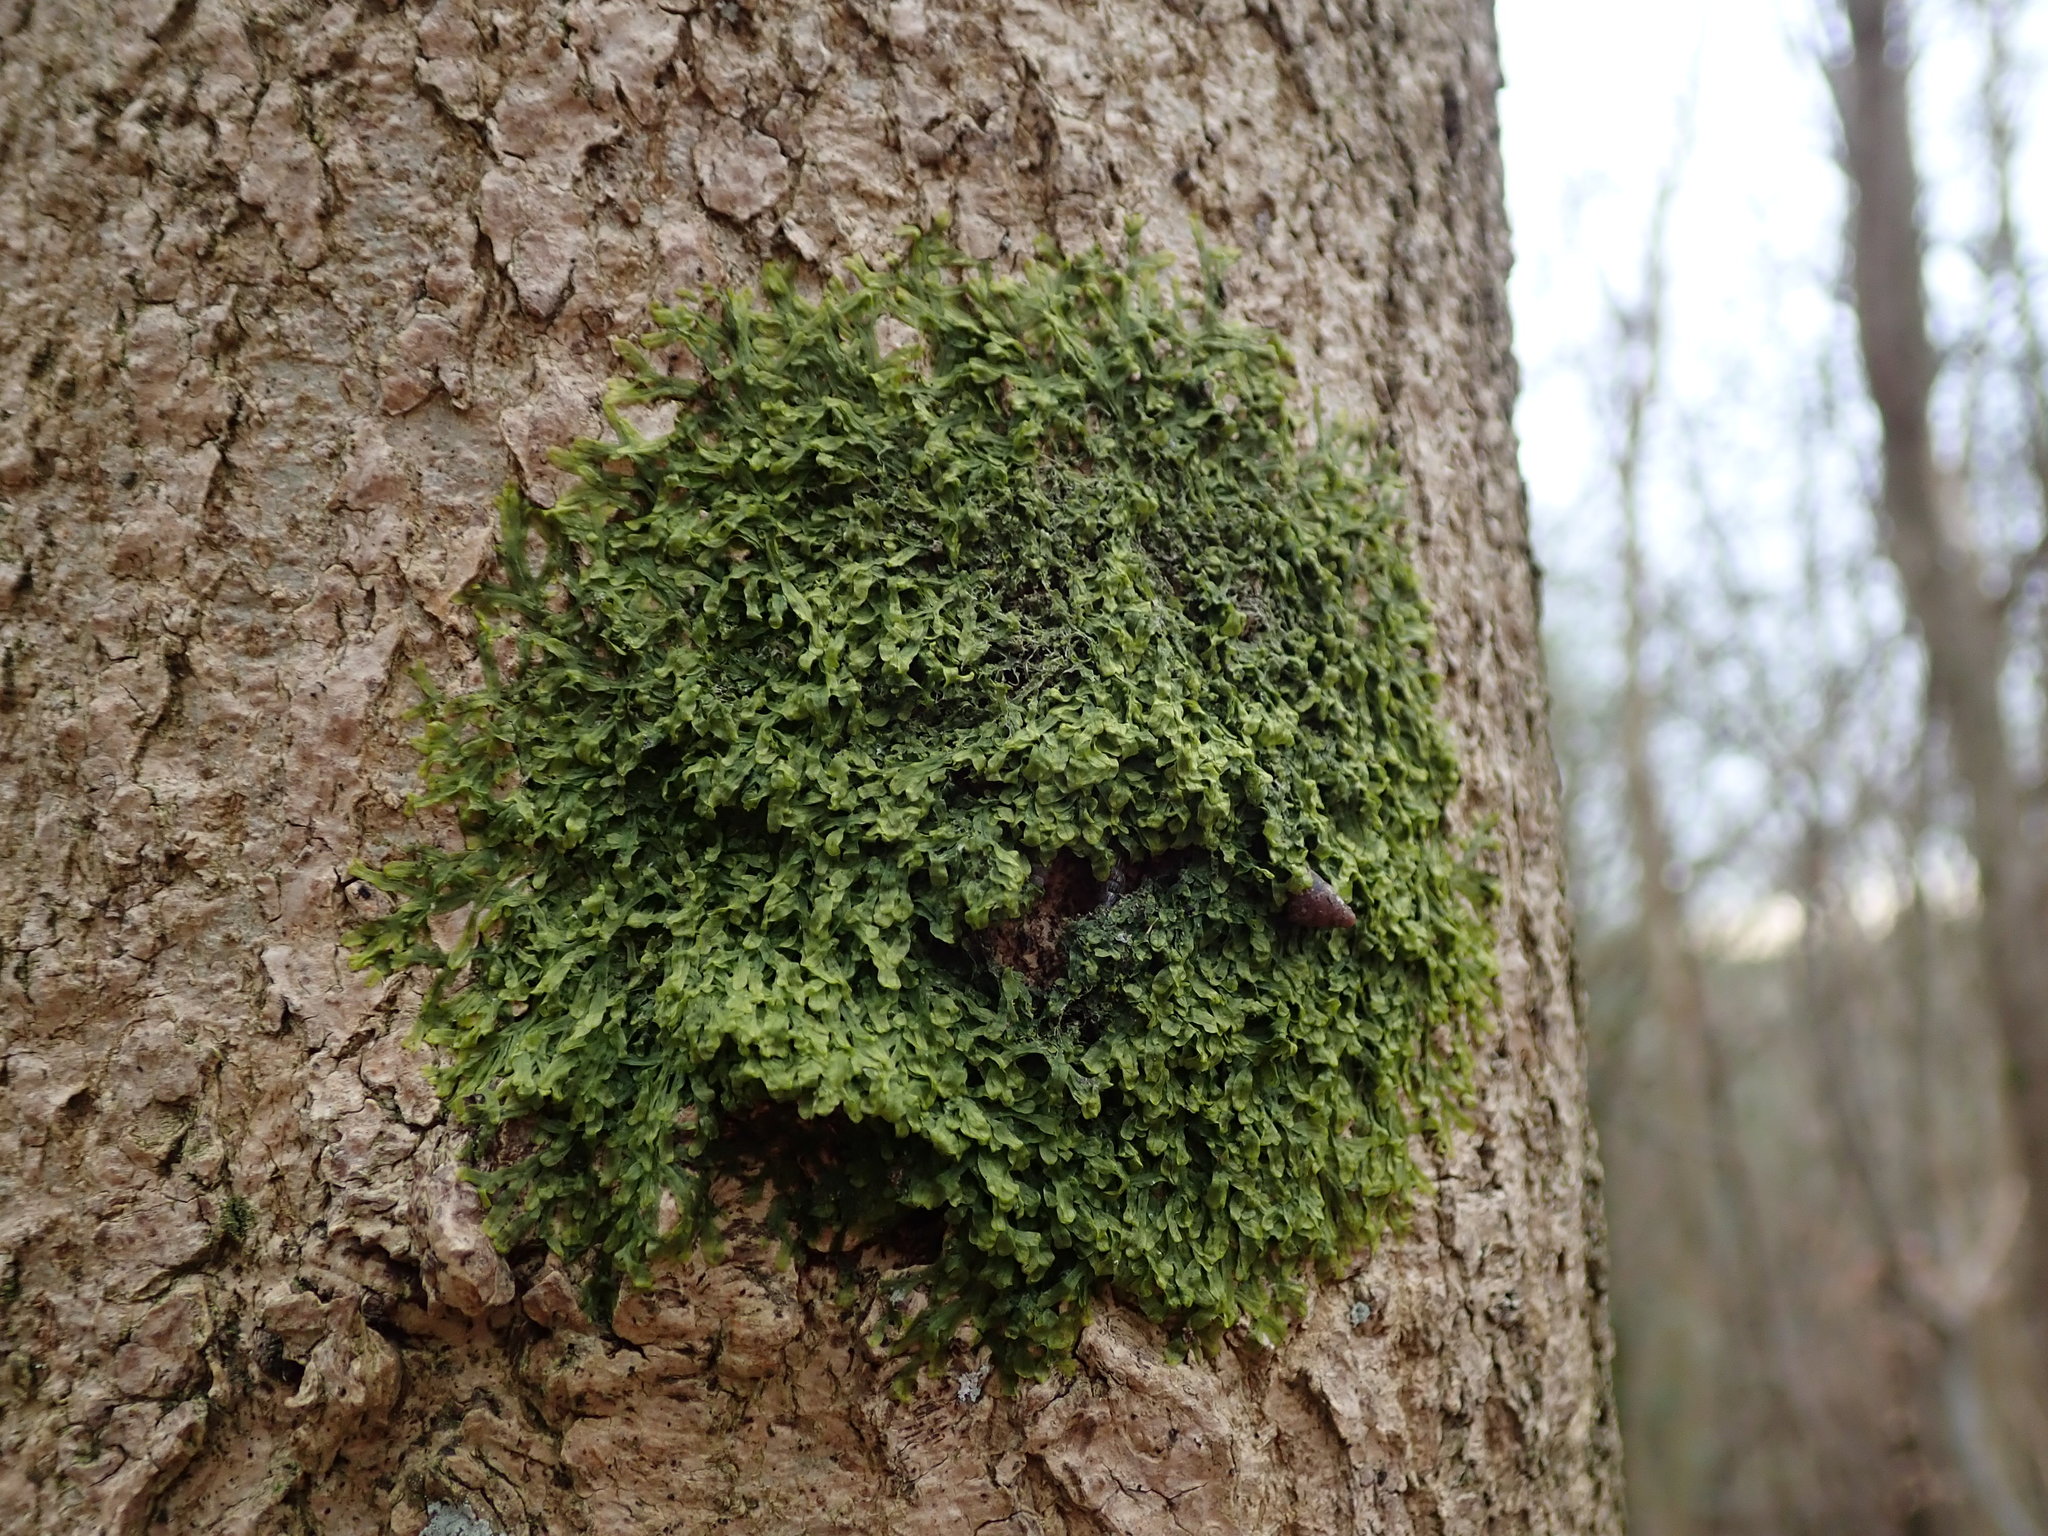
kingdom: Plantae
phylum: Marchantiophyta
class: Jungermanniopsida
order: Metzgeriales
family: Metzgeriaceae
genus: Metzgeria
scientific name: Metzgeria furcata
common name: Forked veilwort
